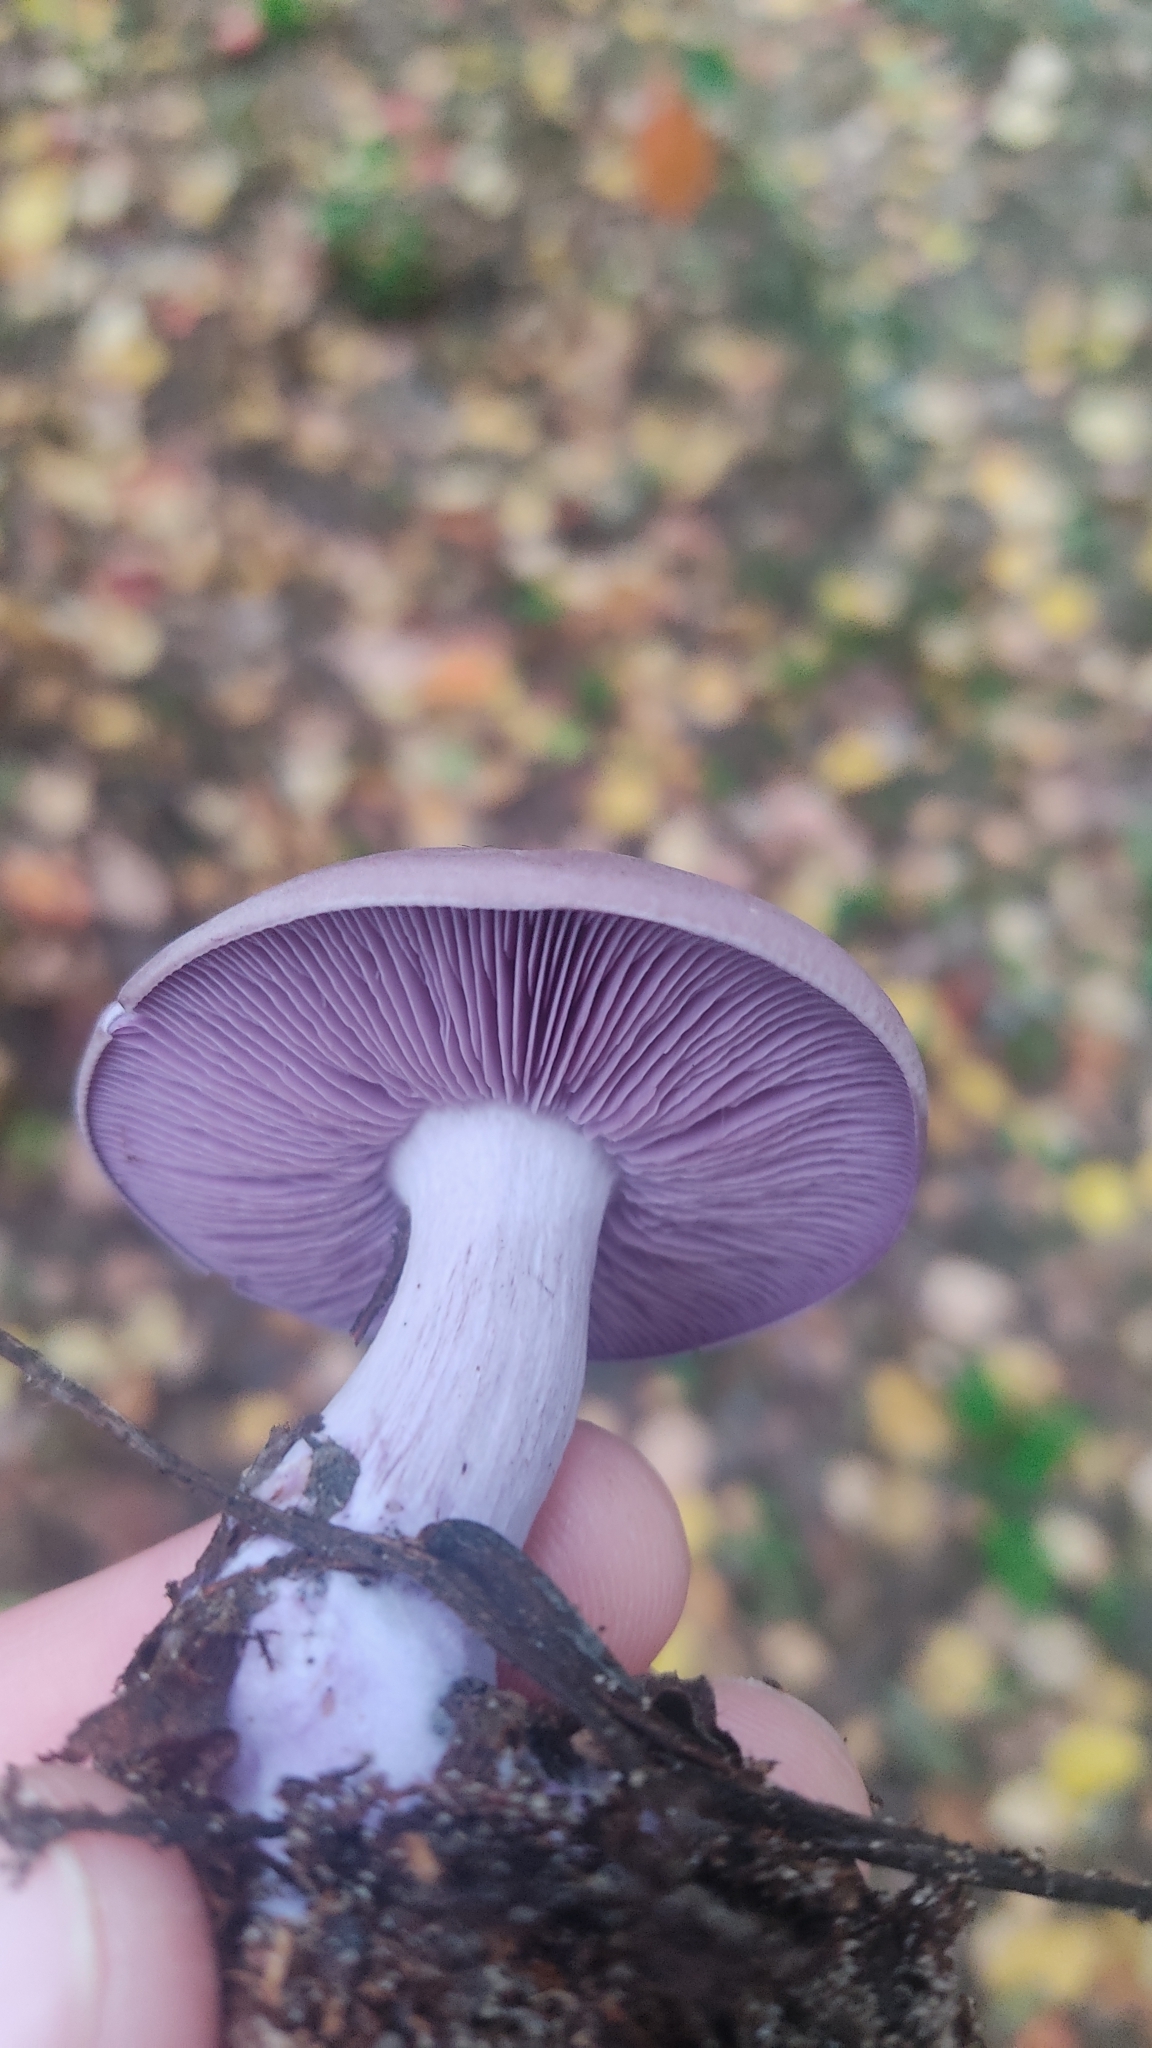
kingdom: Fungi
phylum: Basidiomycota
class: Agaricomycetes
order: Agaricales
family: Tricholomataceae
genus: Collybia
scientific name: Collybia
